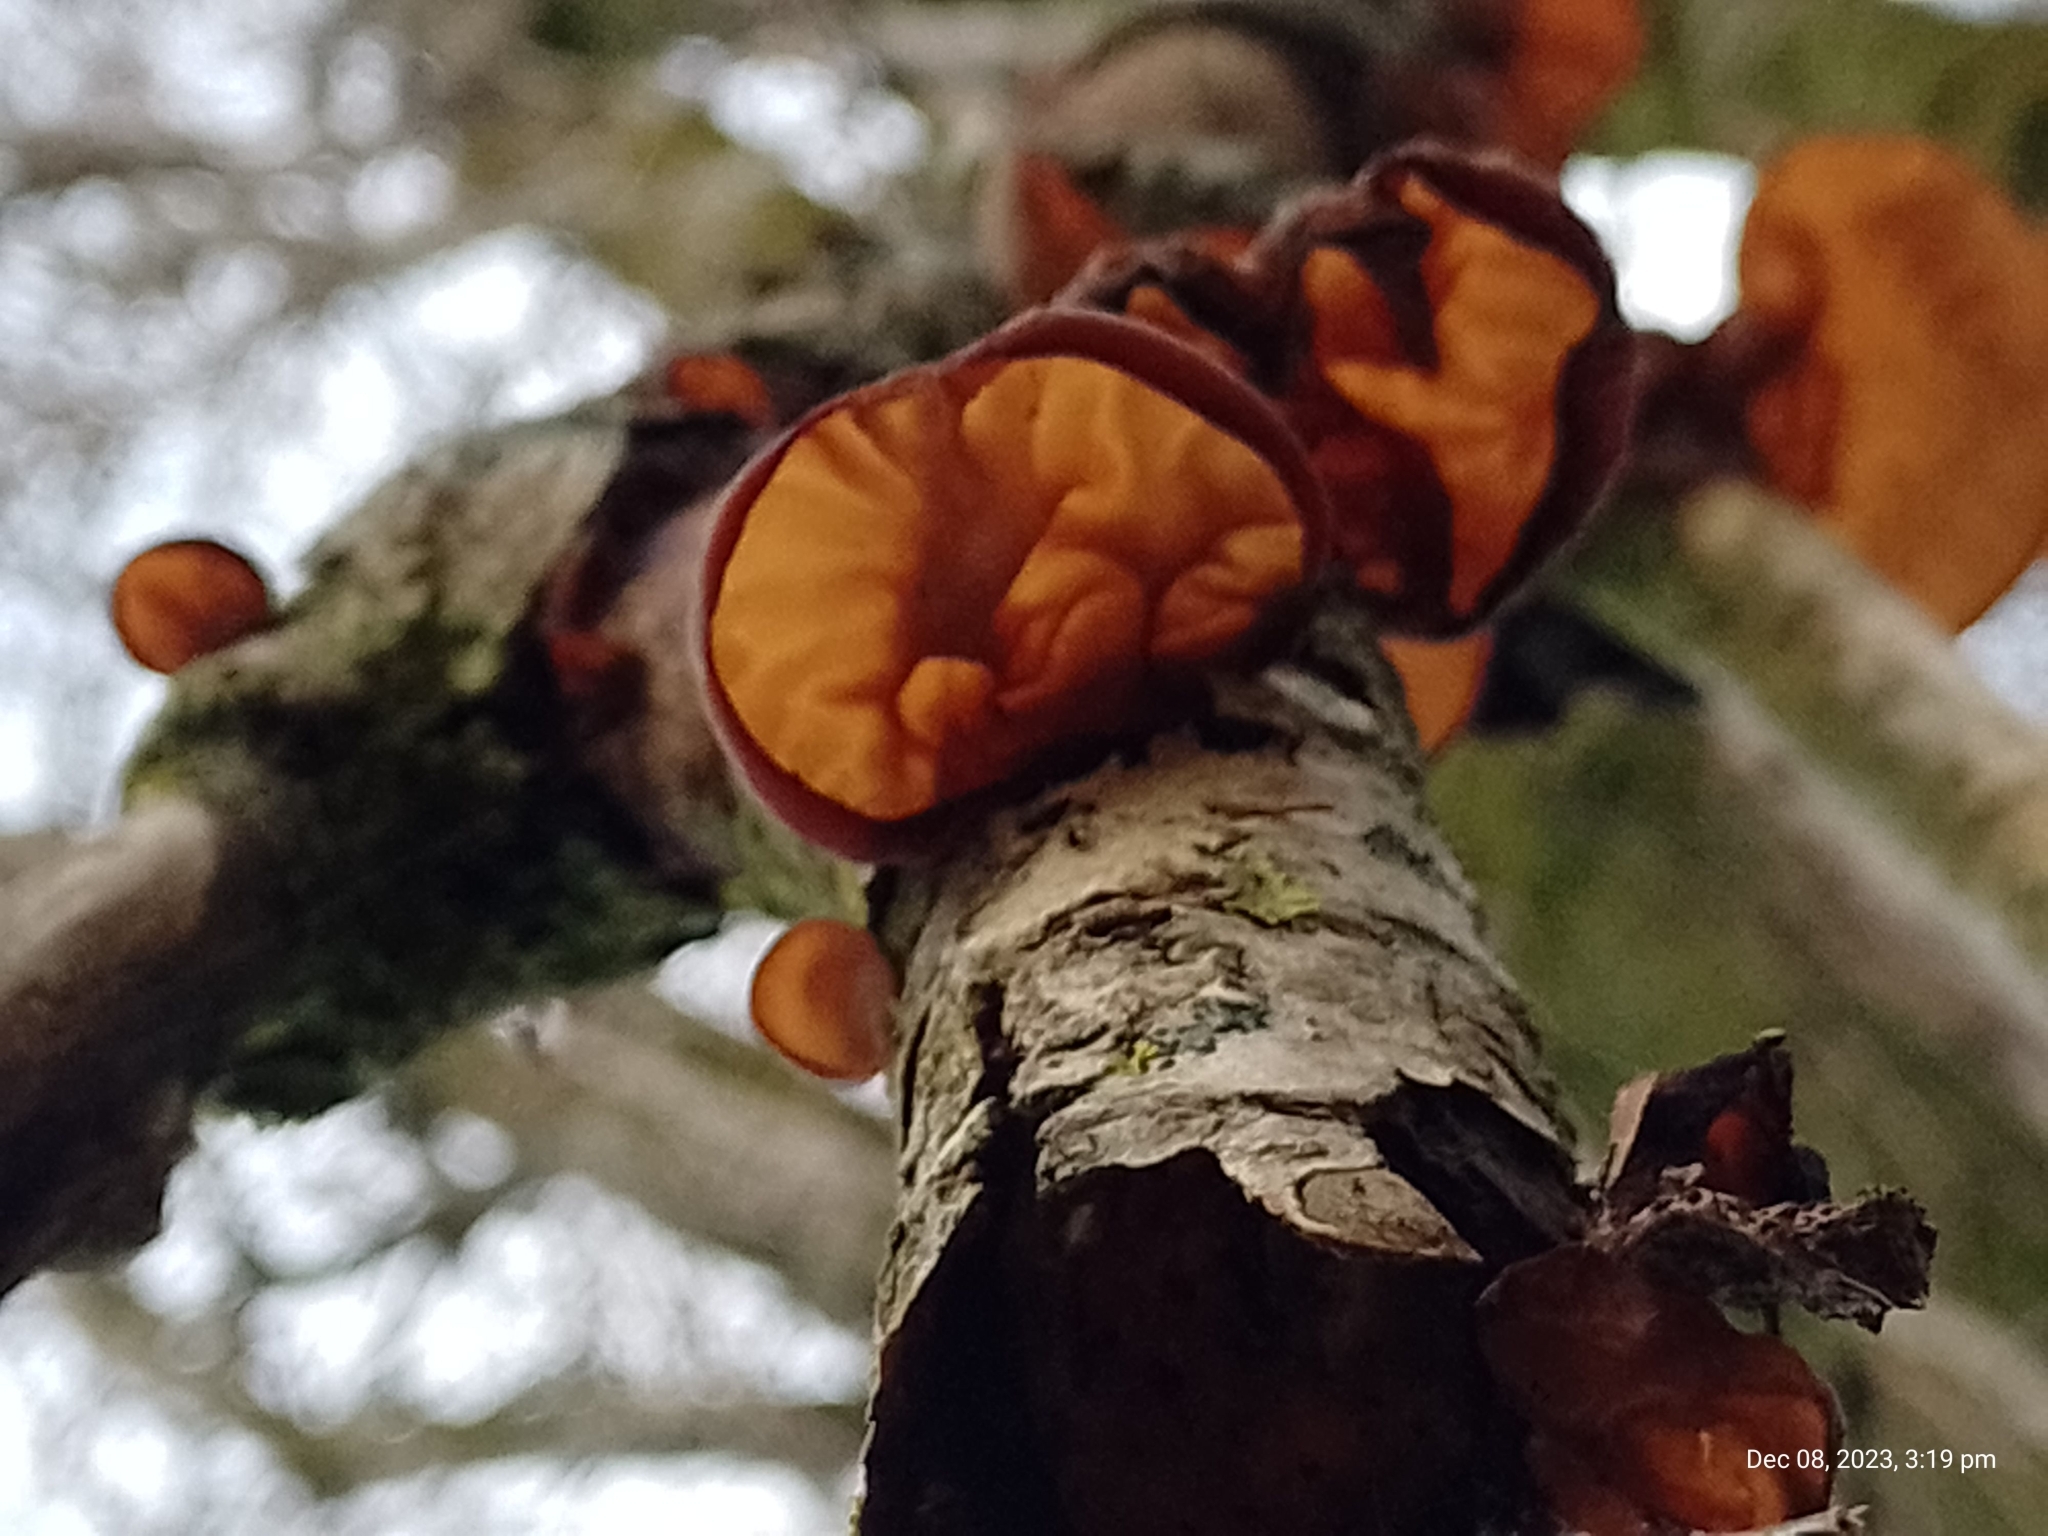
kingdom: Fungi
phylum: Basidiomycota
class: Agaricomycetes
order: Auriculariales
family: Auriculariaceae
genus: Auricularia
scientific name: Auricularia auricula-judae
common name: Jelly ear
